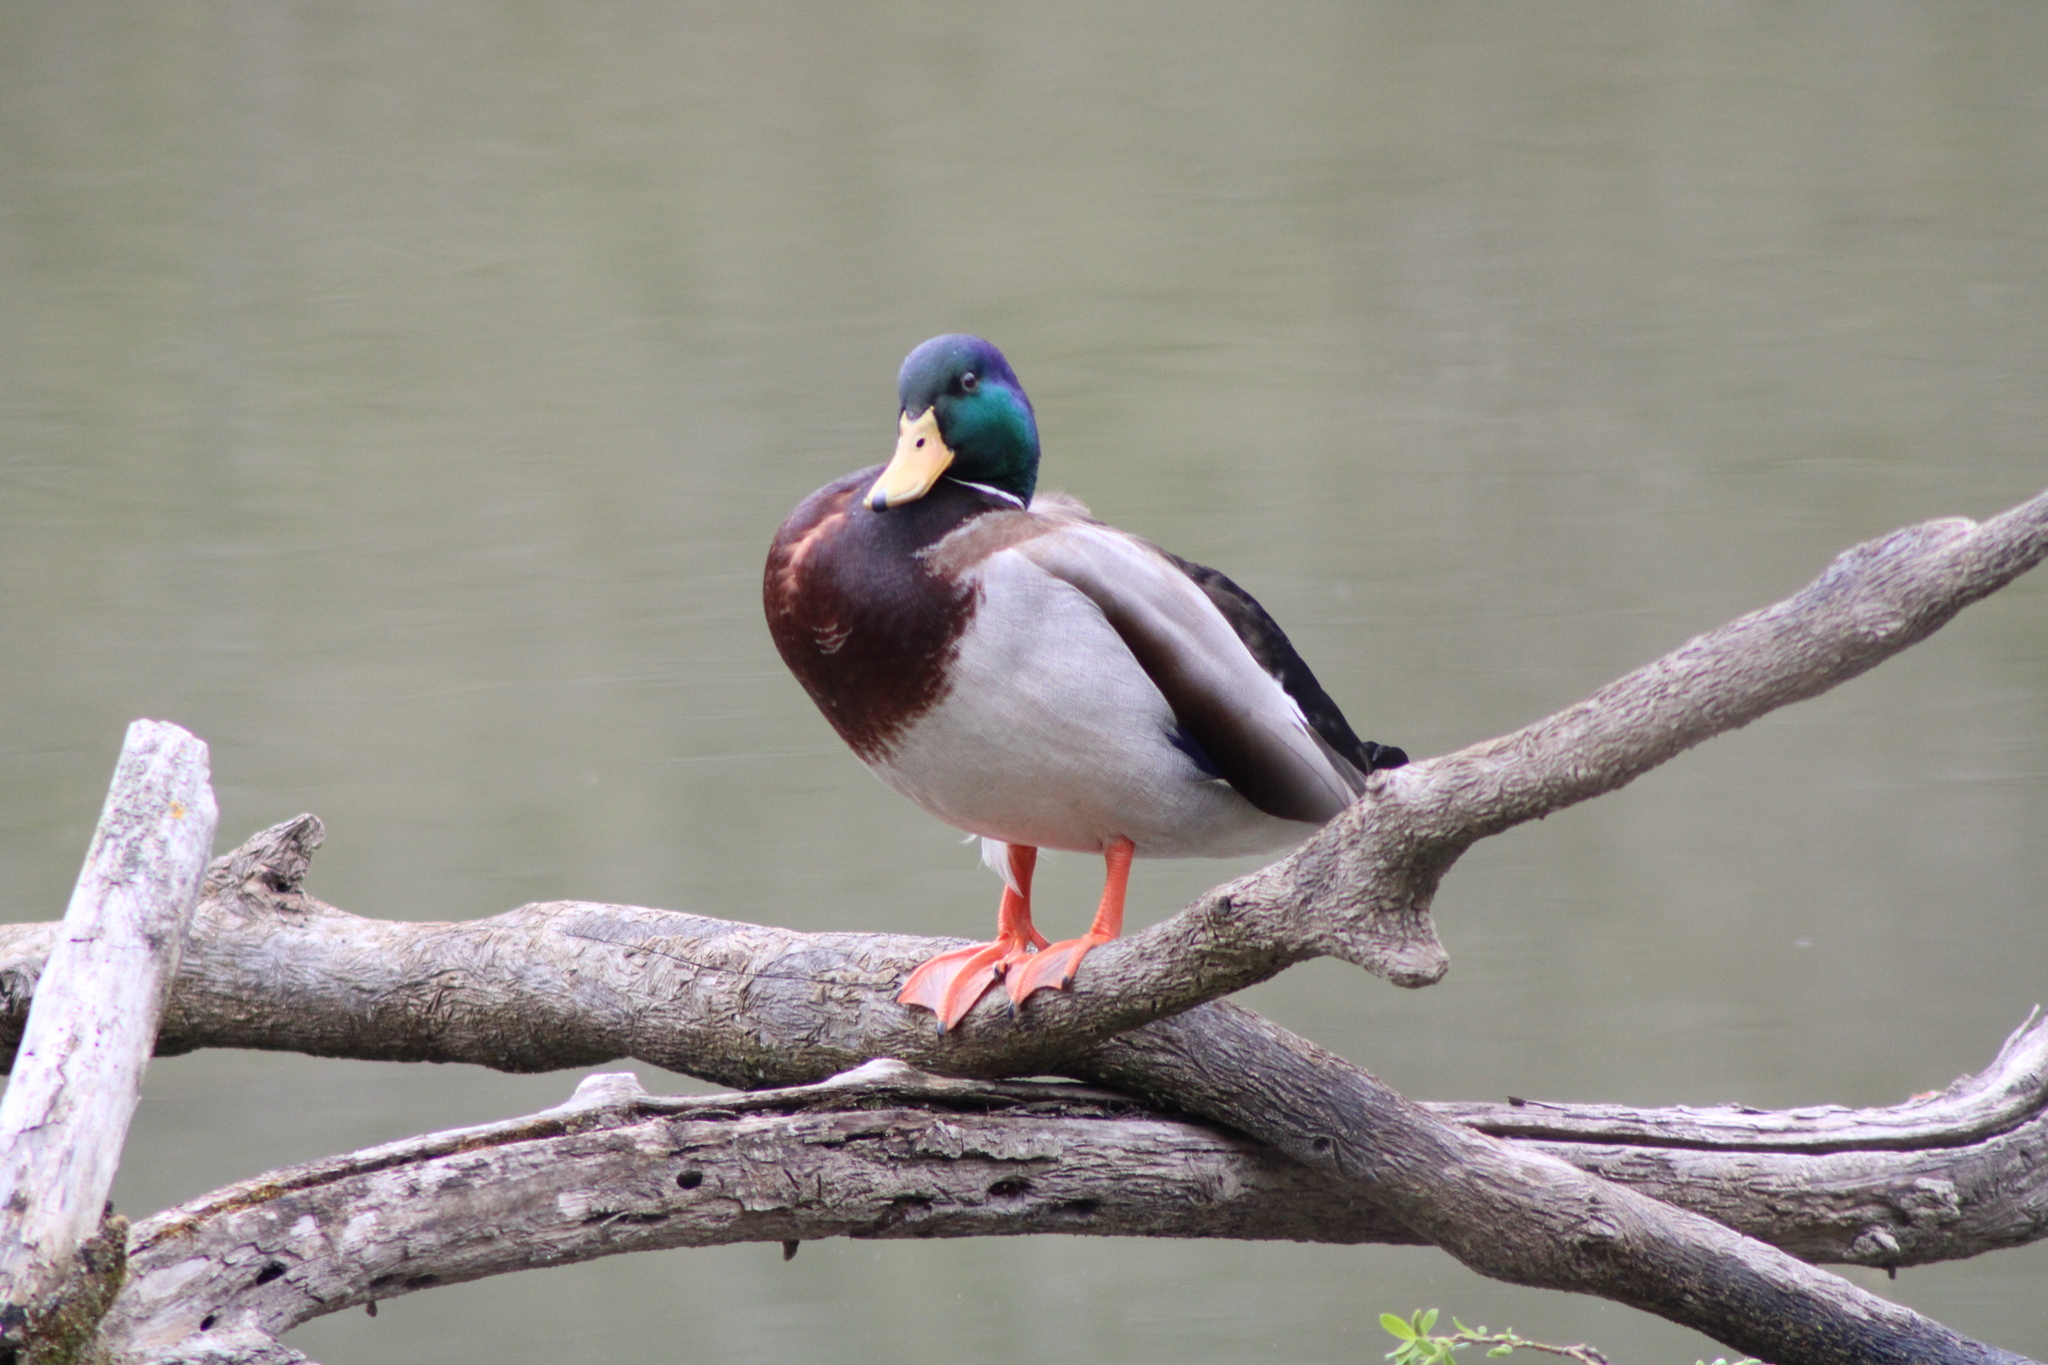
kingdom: Animalia
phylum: Chordata
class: Aves
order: Anseriformes
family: Anatidae
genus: Anas
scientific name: Anas platyrhynchos
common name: Mallard
